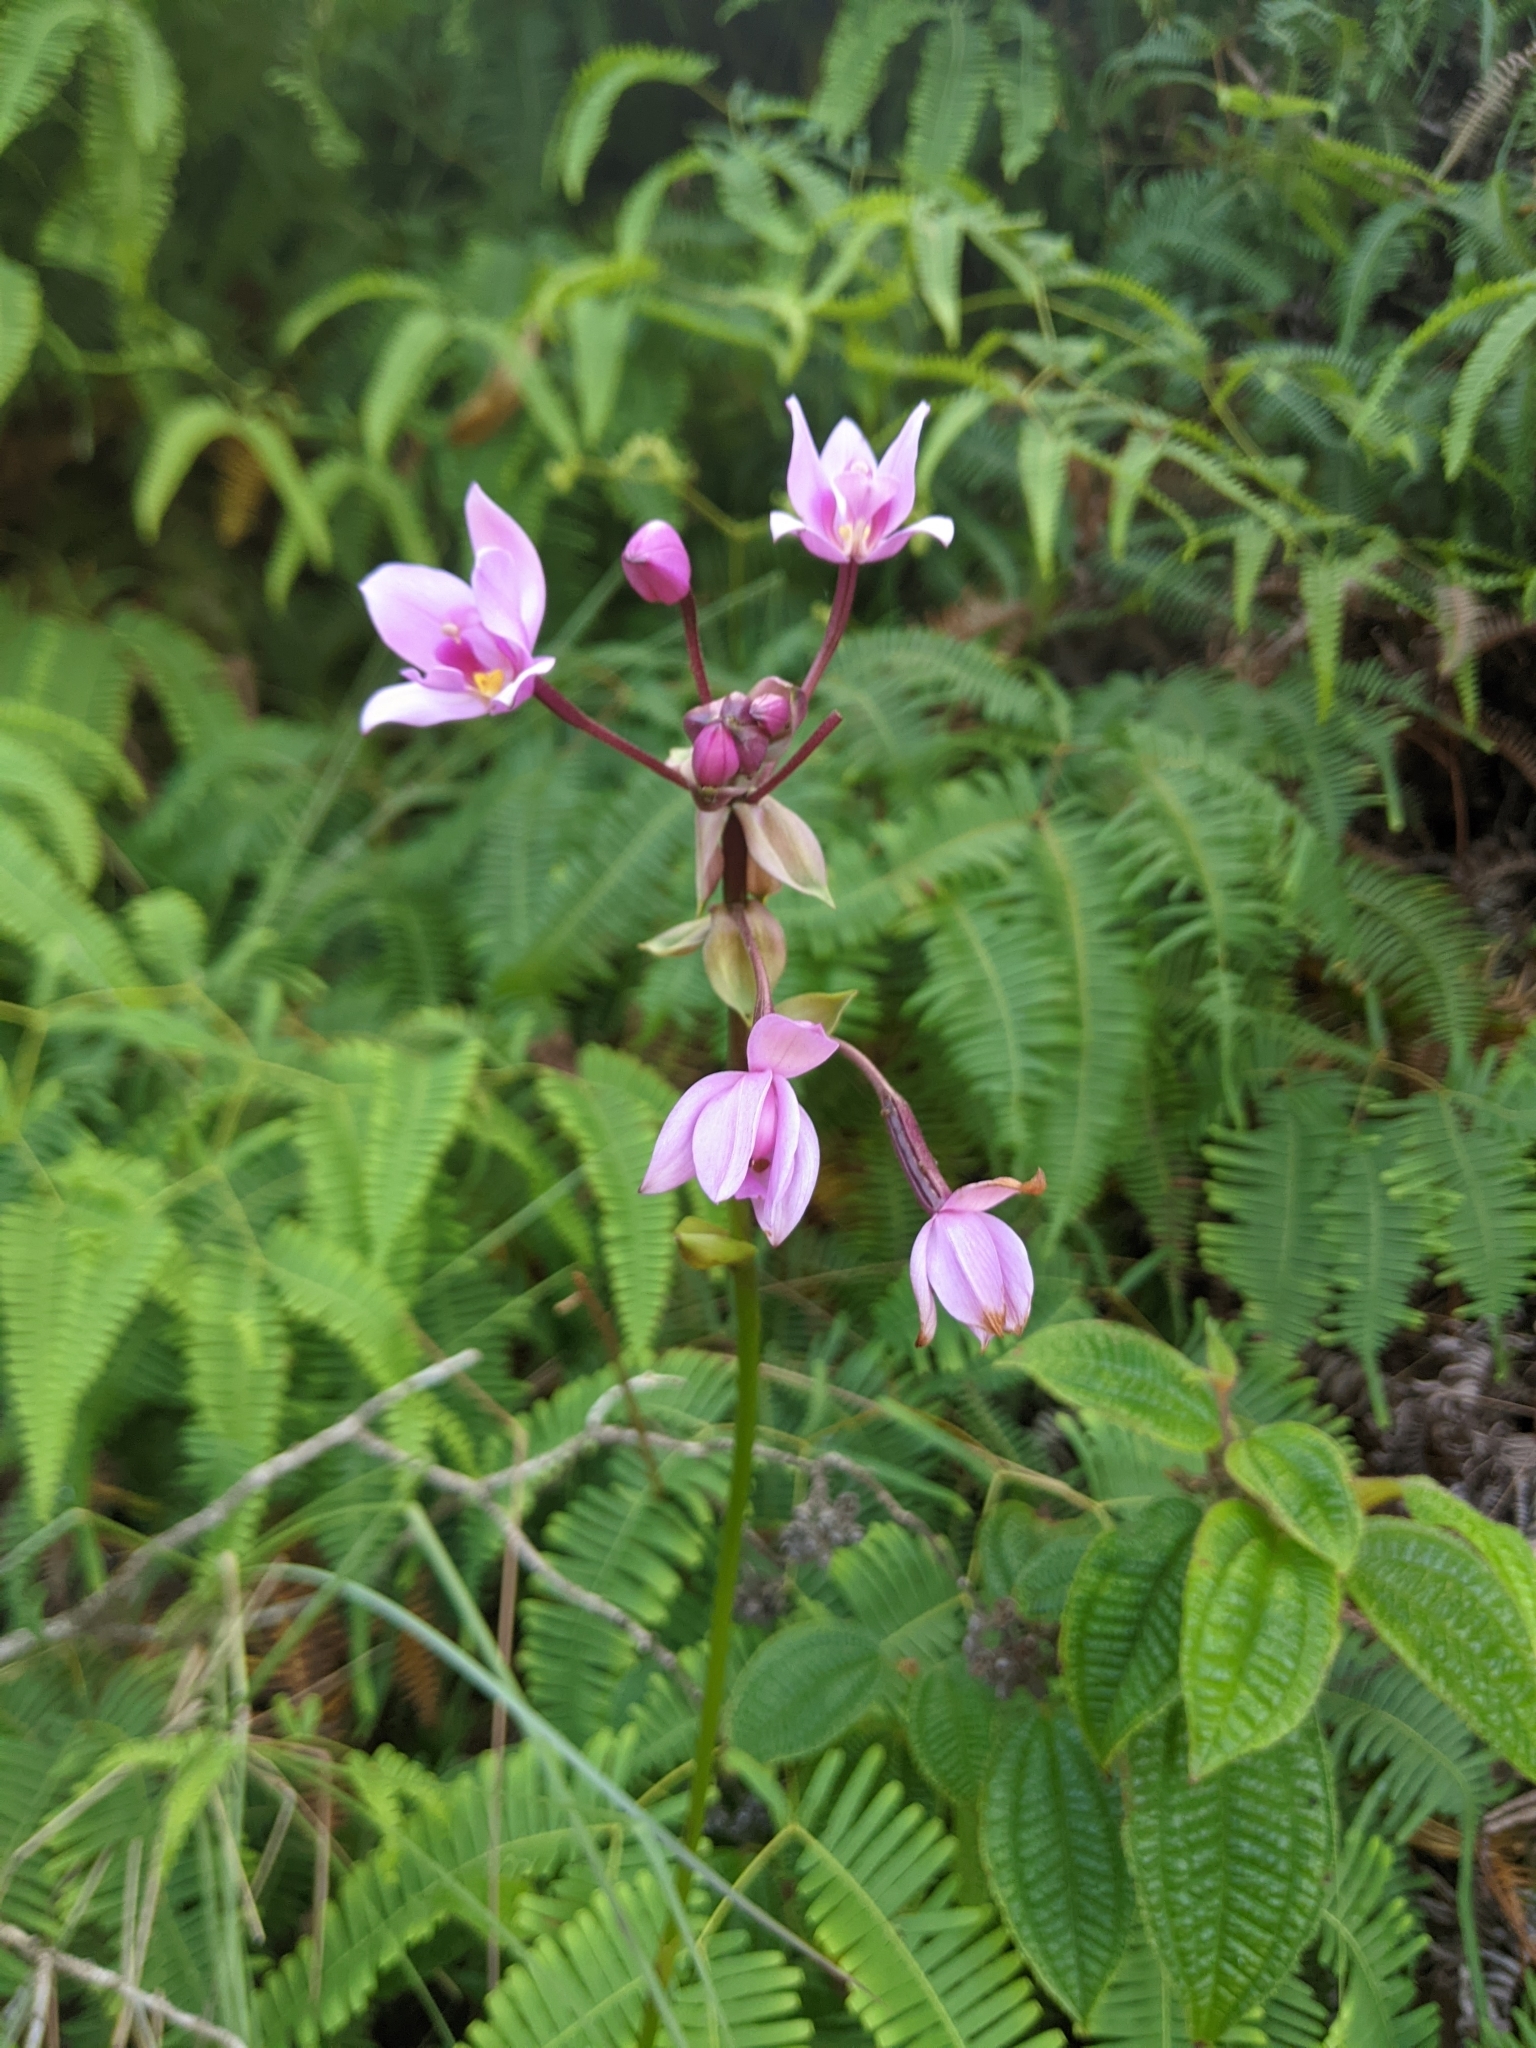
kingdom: Plantae
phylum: Tracheophyta
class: Liliopsida
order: Asparagales
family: Orchidaceae
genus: Spathoglottis
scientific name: Spathoglottis plicata
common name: Philippine ground orchid
